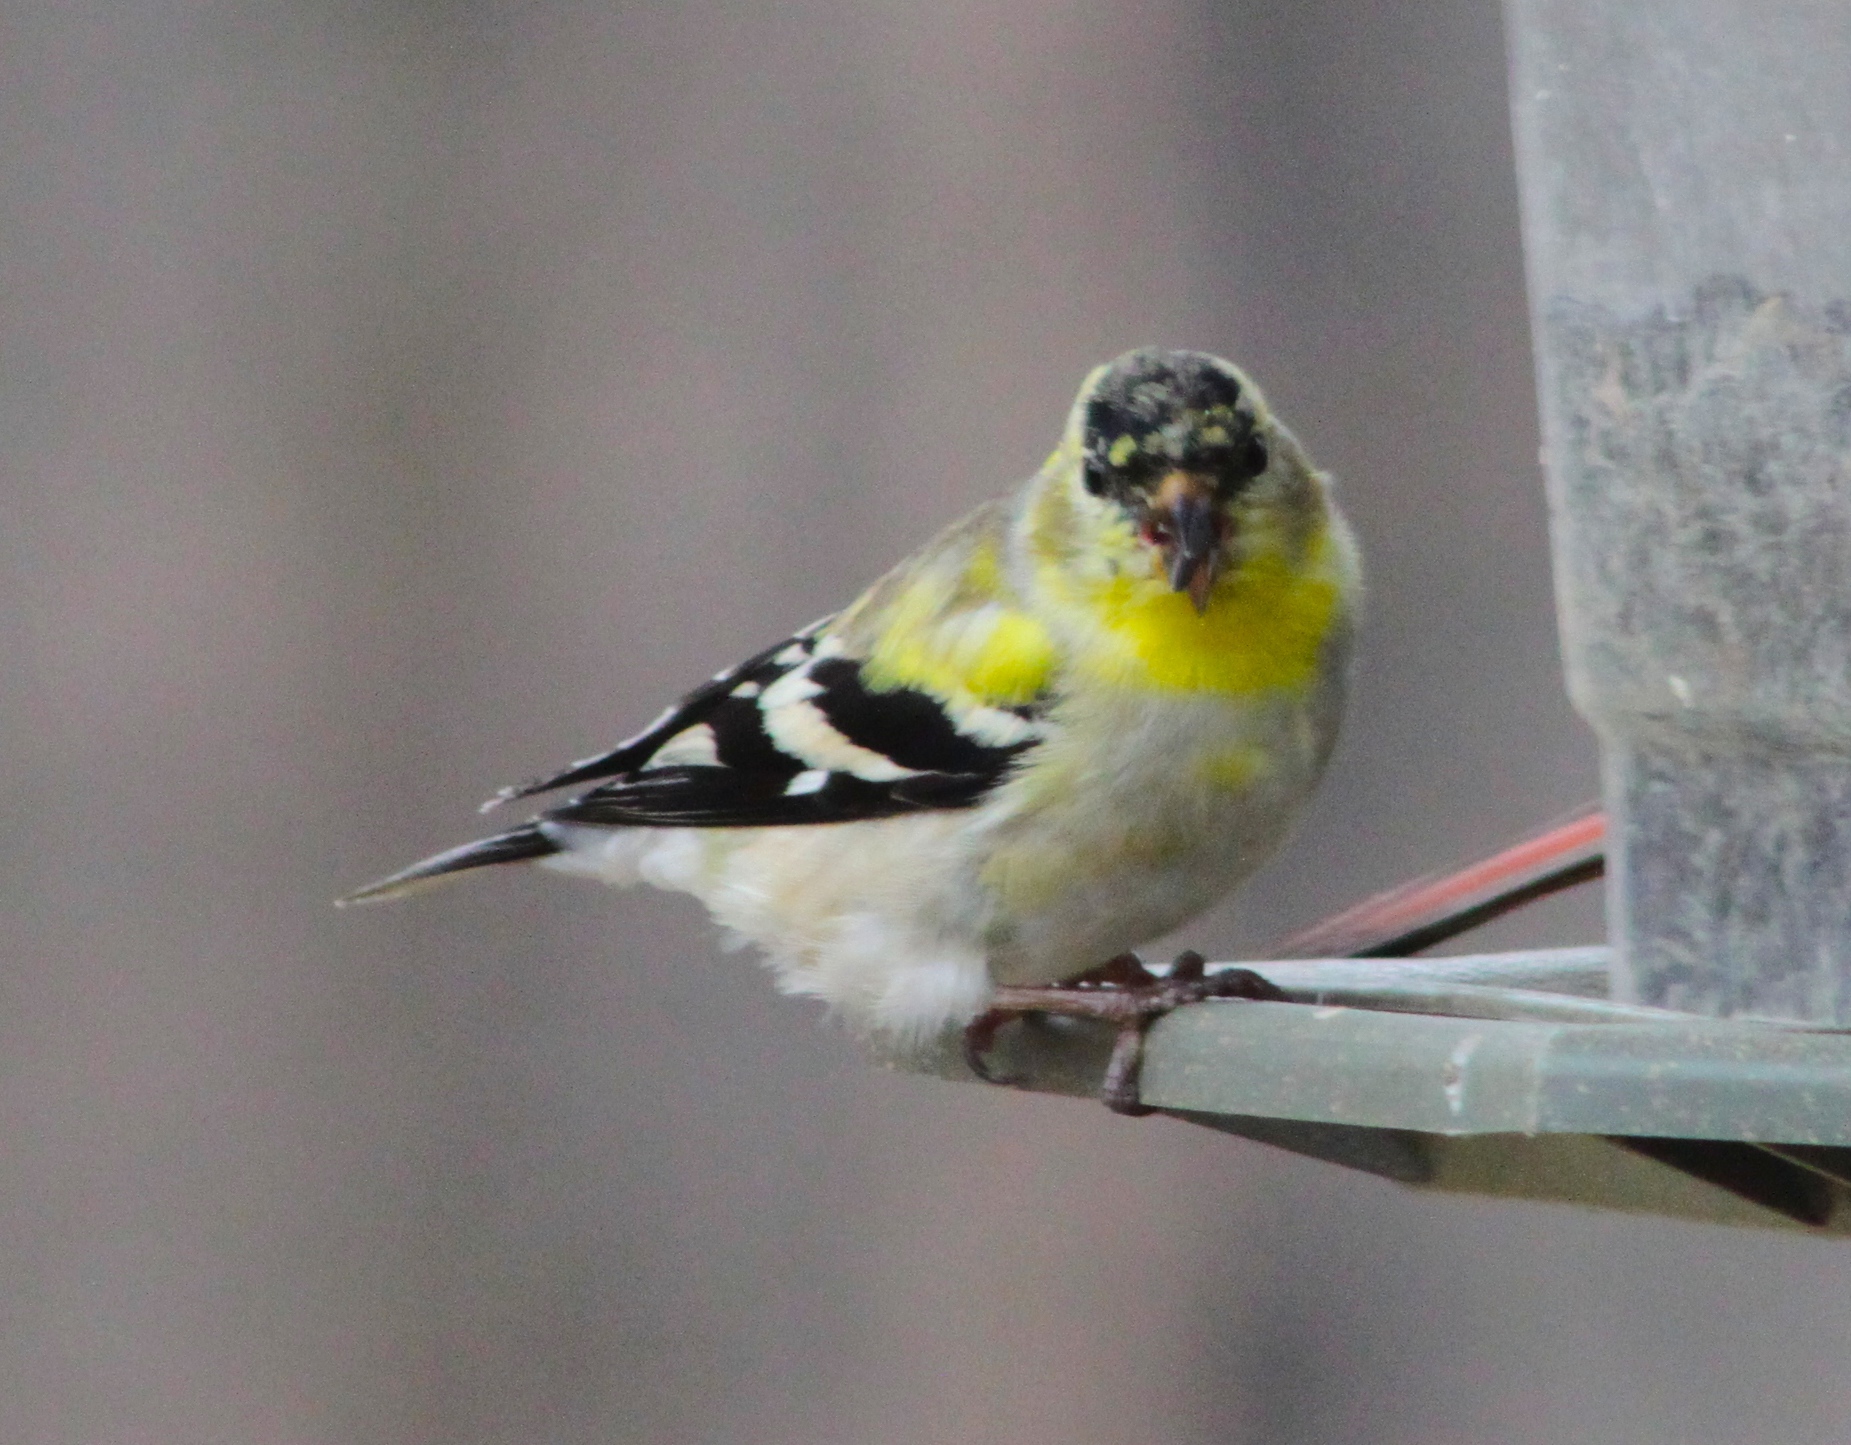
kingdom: Animalia
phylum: Chordata
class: Aves
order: Passeriformes
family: Fringillidae
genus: Spinus
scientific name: Spinus tristis
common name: American goldfinch
